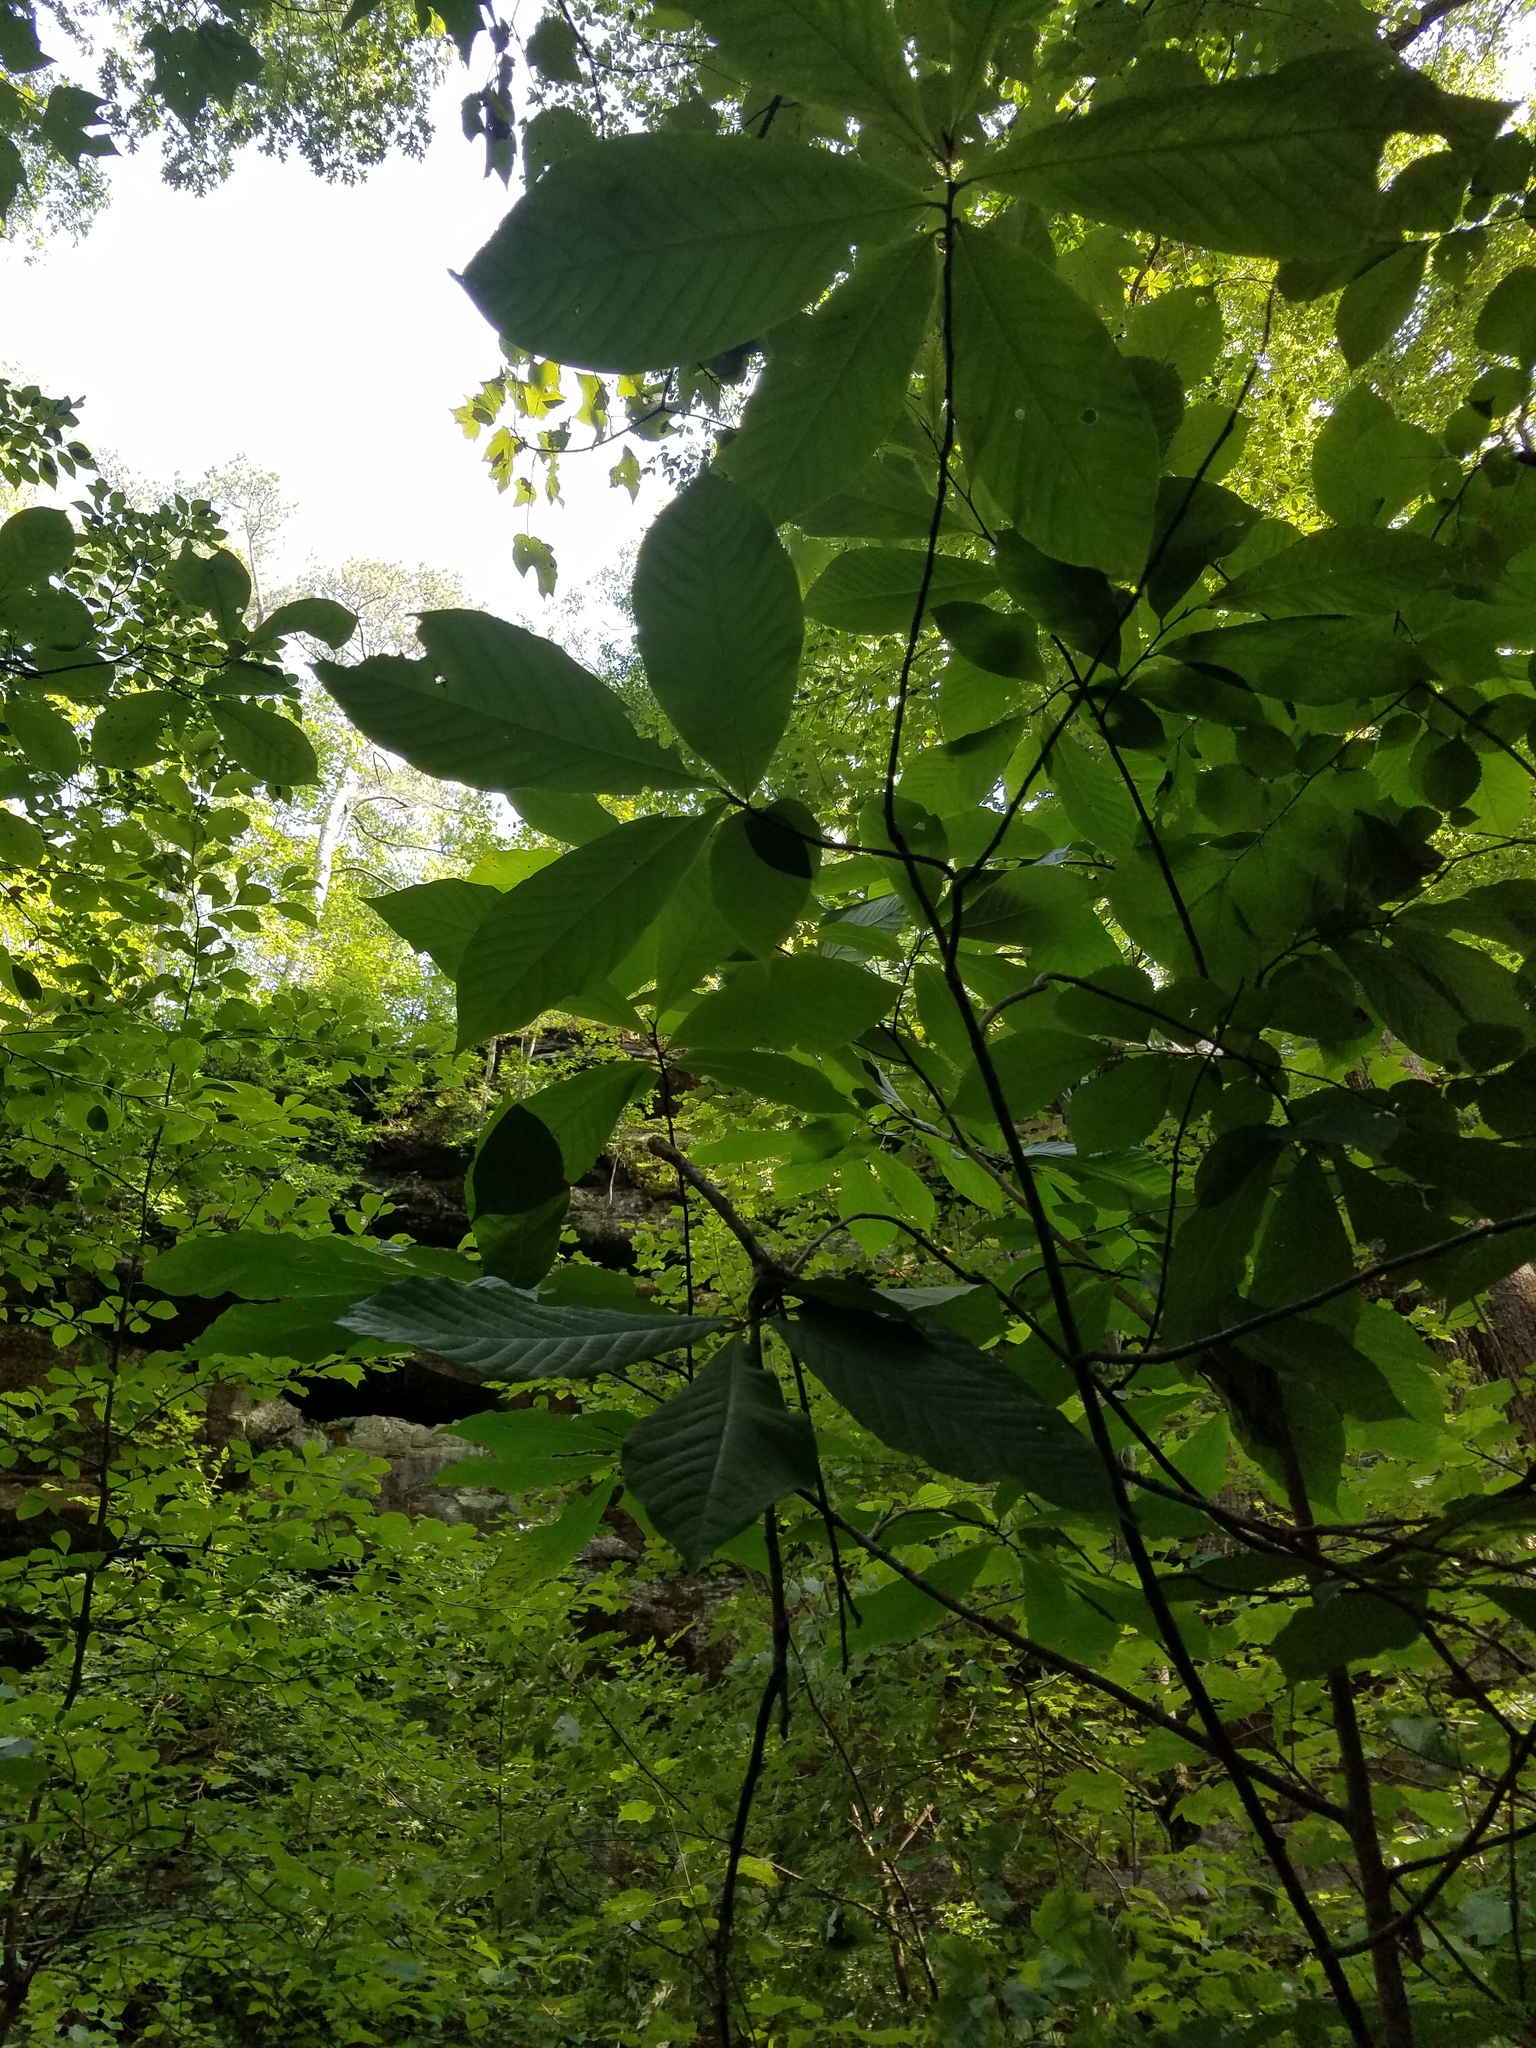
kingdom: Plantae
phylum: Tracheophyta
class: Magnoliopsida
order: Magnoliales
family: Annonaceae
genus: Asimina
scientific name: Asimina triloba
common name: Dog-banana
